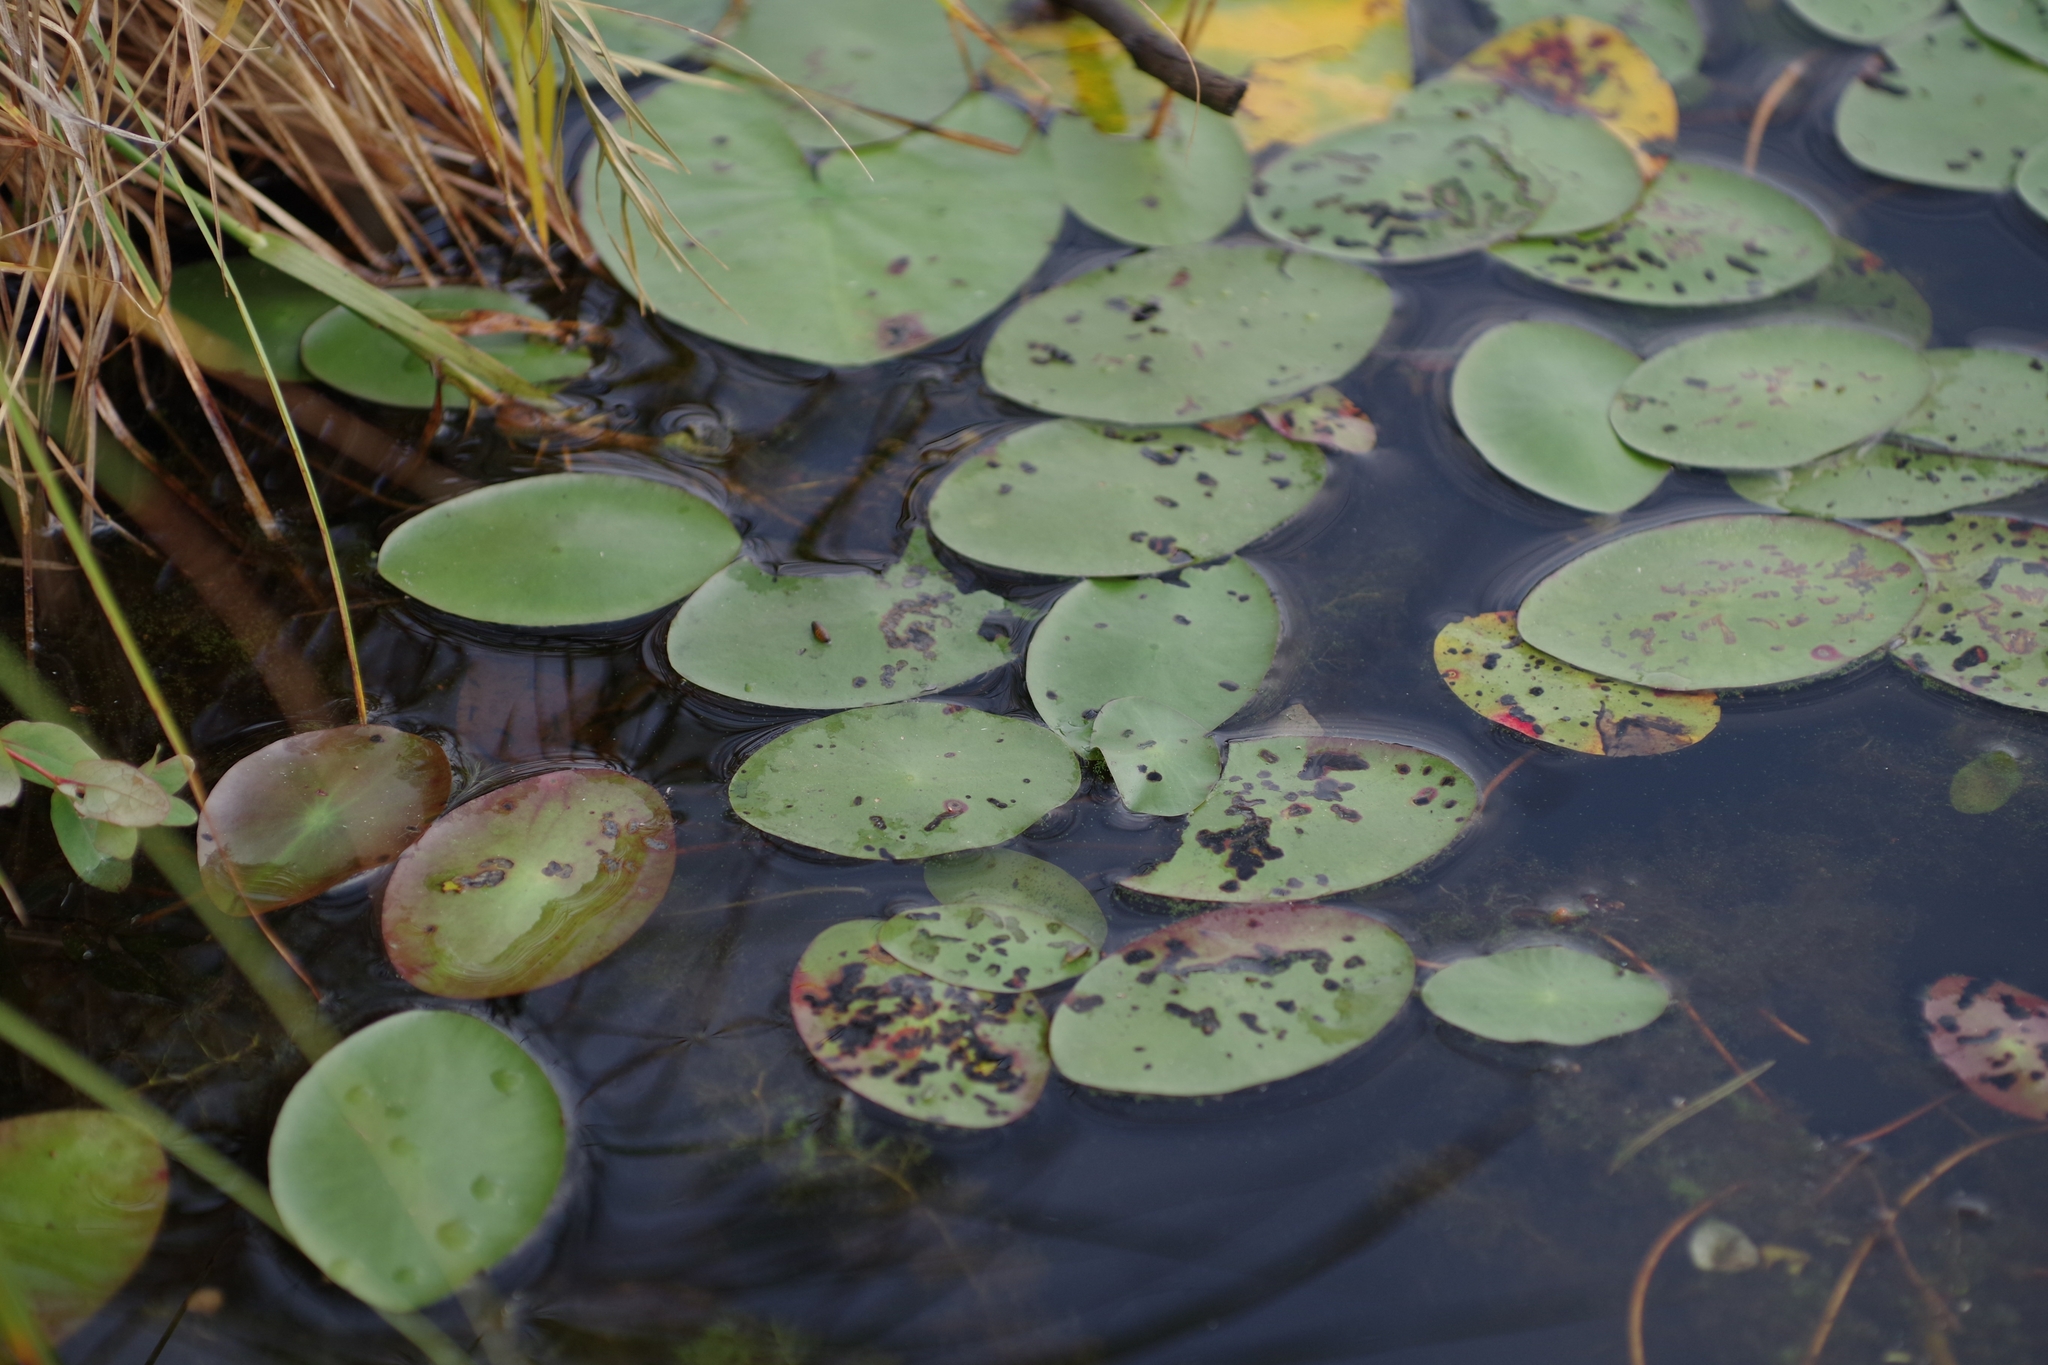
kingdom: Plantae
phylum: Tracheophyta
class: Magnoliopsida
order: Nymphaeales
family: Cabombaceae
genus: Brasenia
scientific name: Brasenia schreberi
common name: Water-shield
